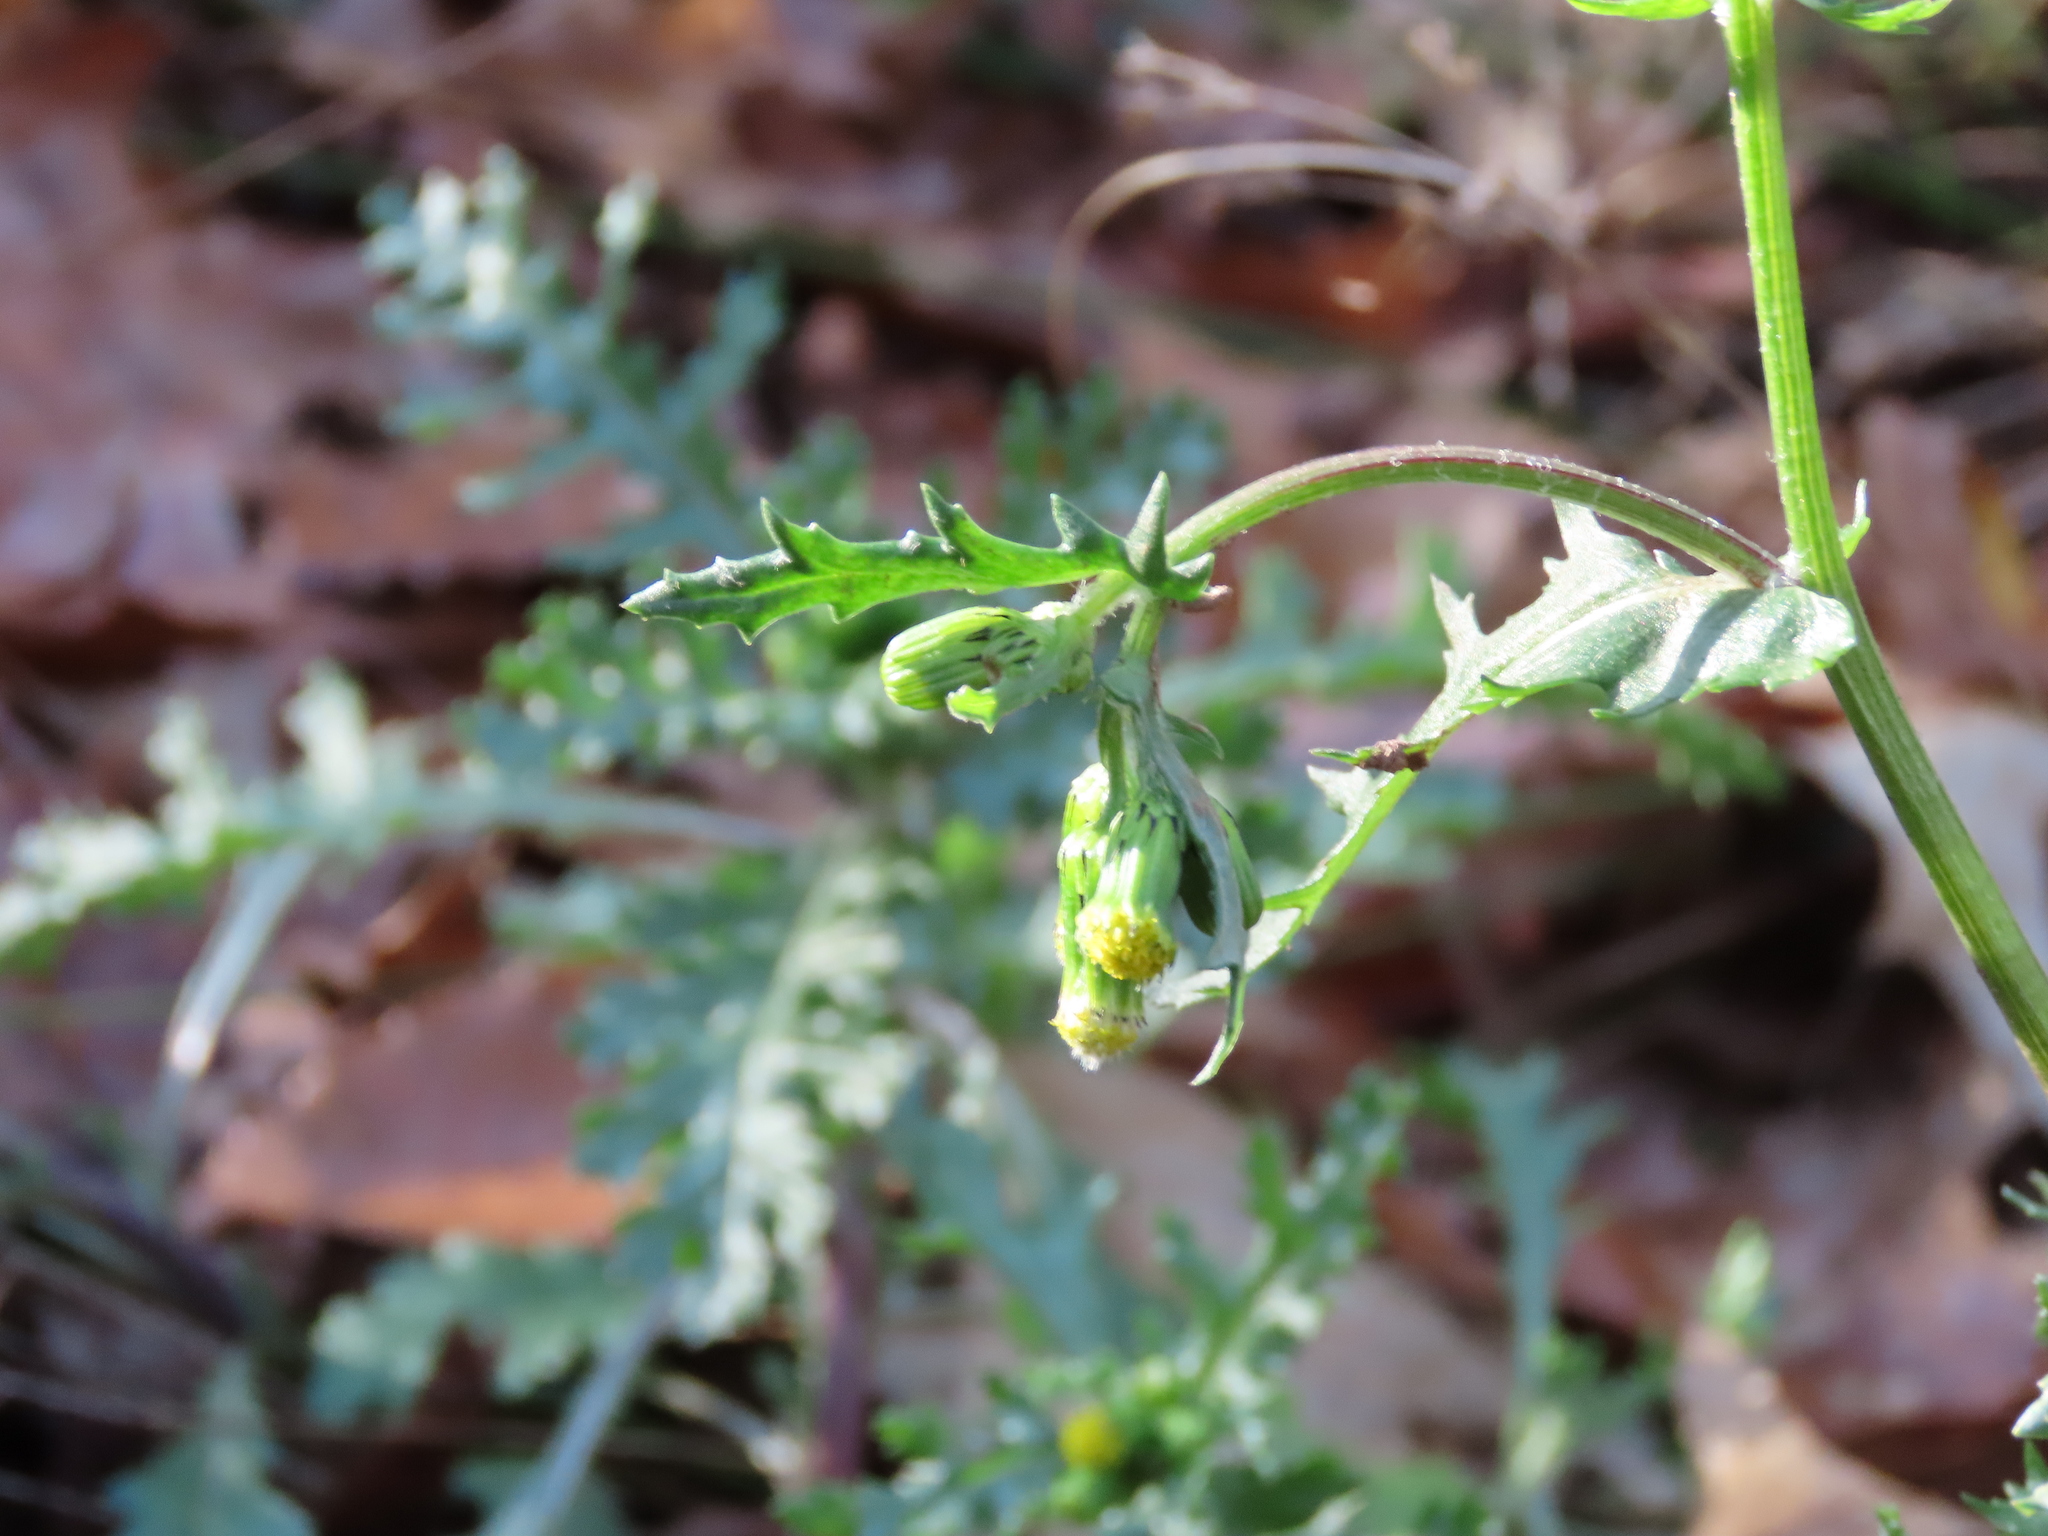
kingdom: Plantae
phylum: Tracheophyta
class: Magnoliopsida
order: Asterales
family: Asteraceae
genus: Senecio
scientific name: Senecio vulgaris
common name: Old-man-in-the-spring
